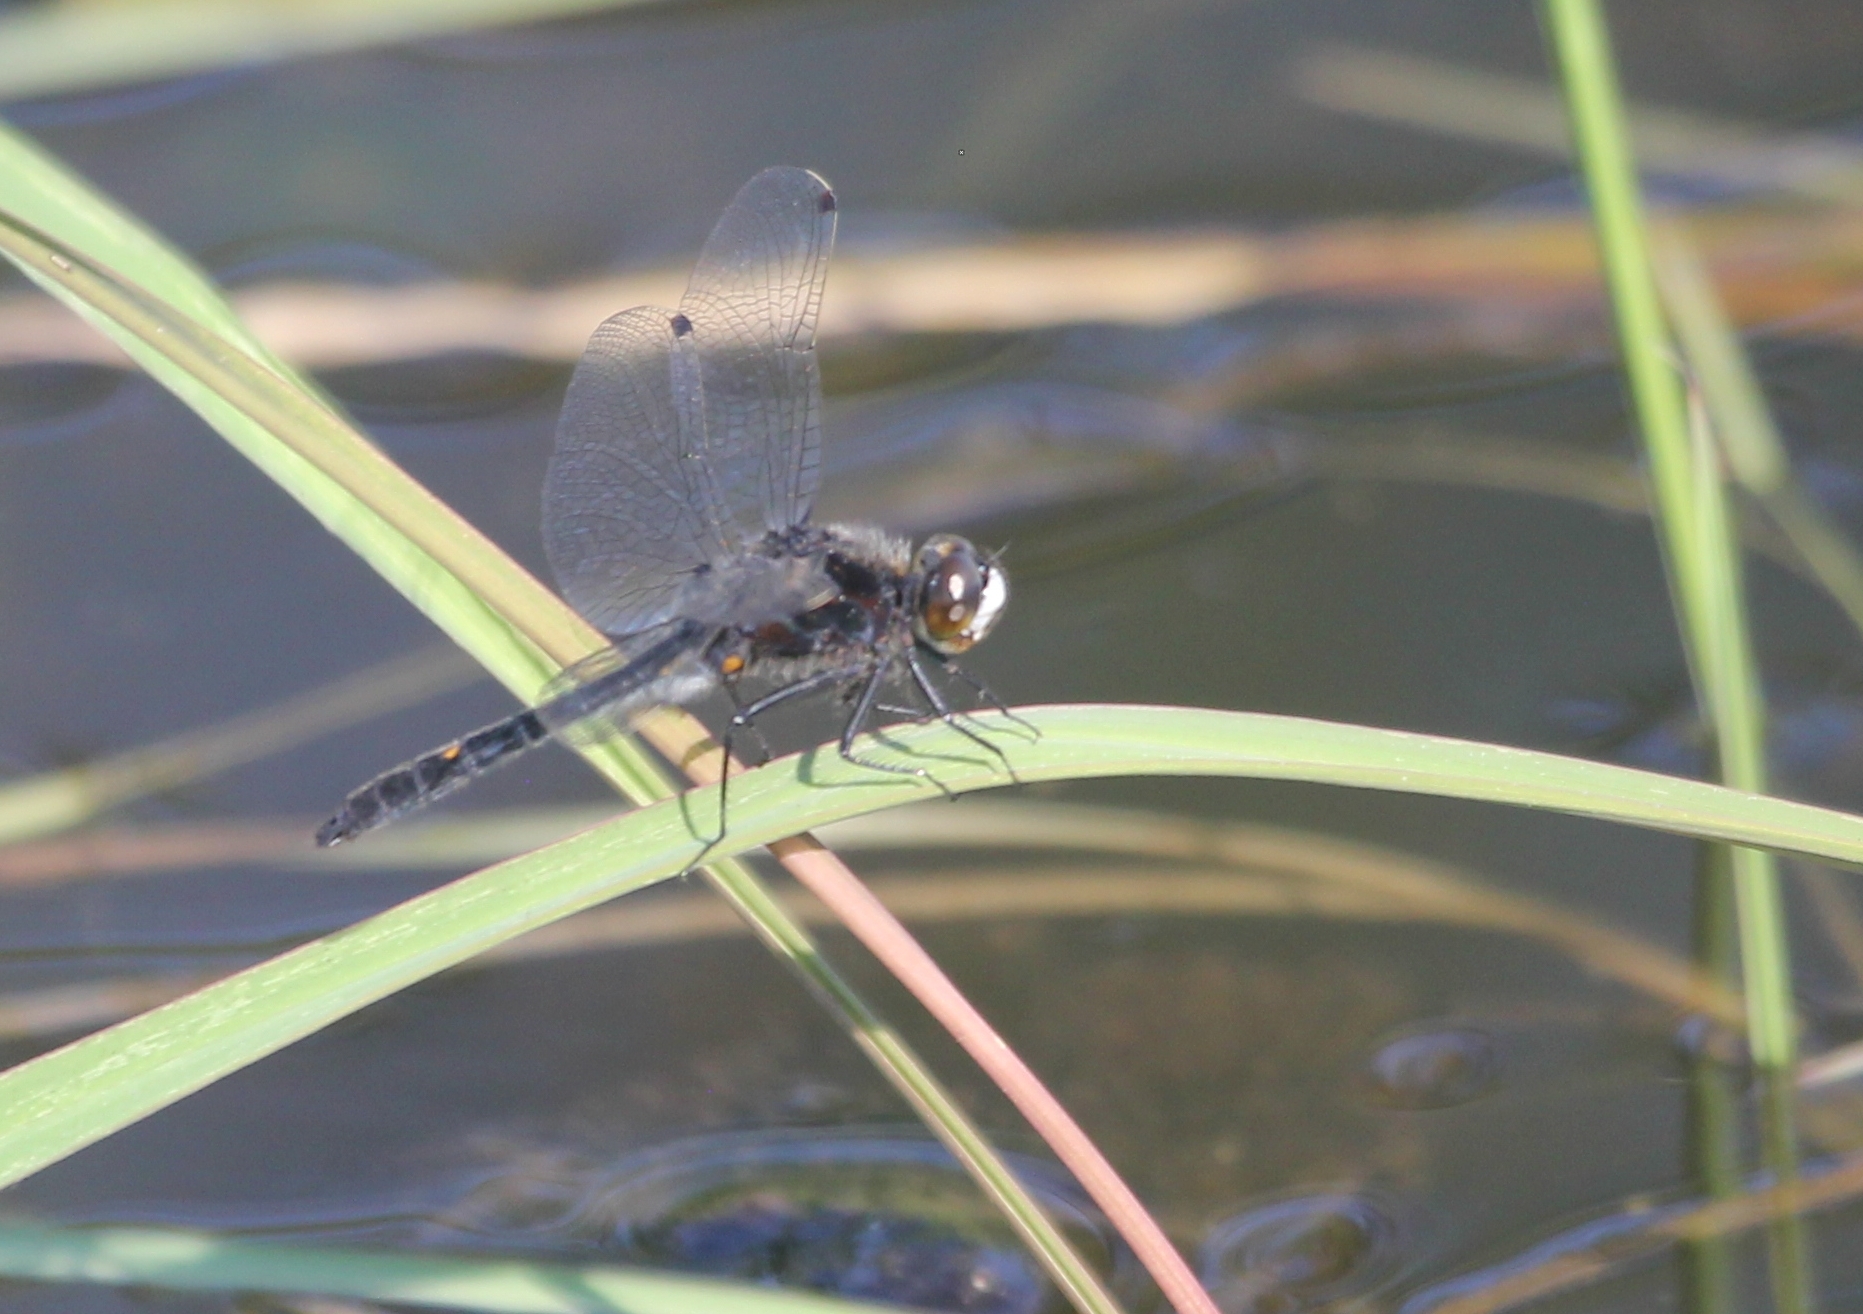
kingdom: Animalia
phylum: Arthropoda
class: Insecta
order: Odonata
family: Libellulidae
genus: Leucorrhinia
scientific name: Leucorrhinia intacta
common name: Dot-tailed whiteface
